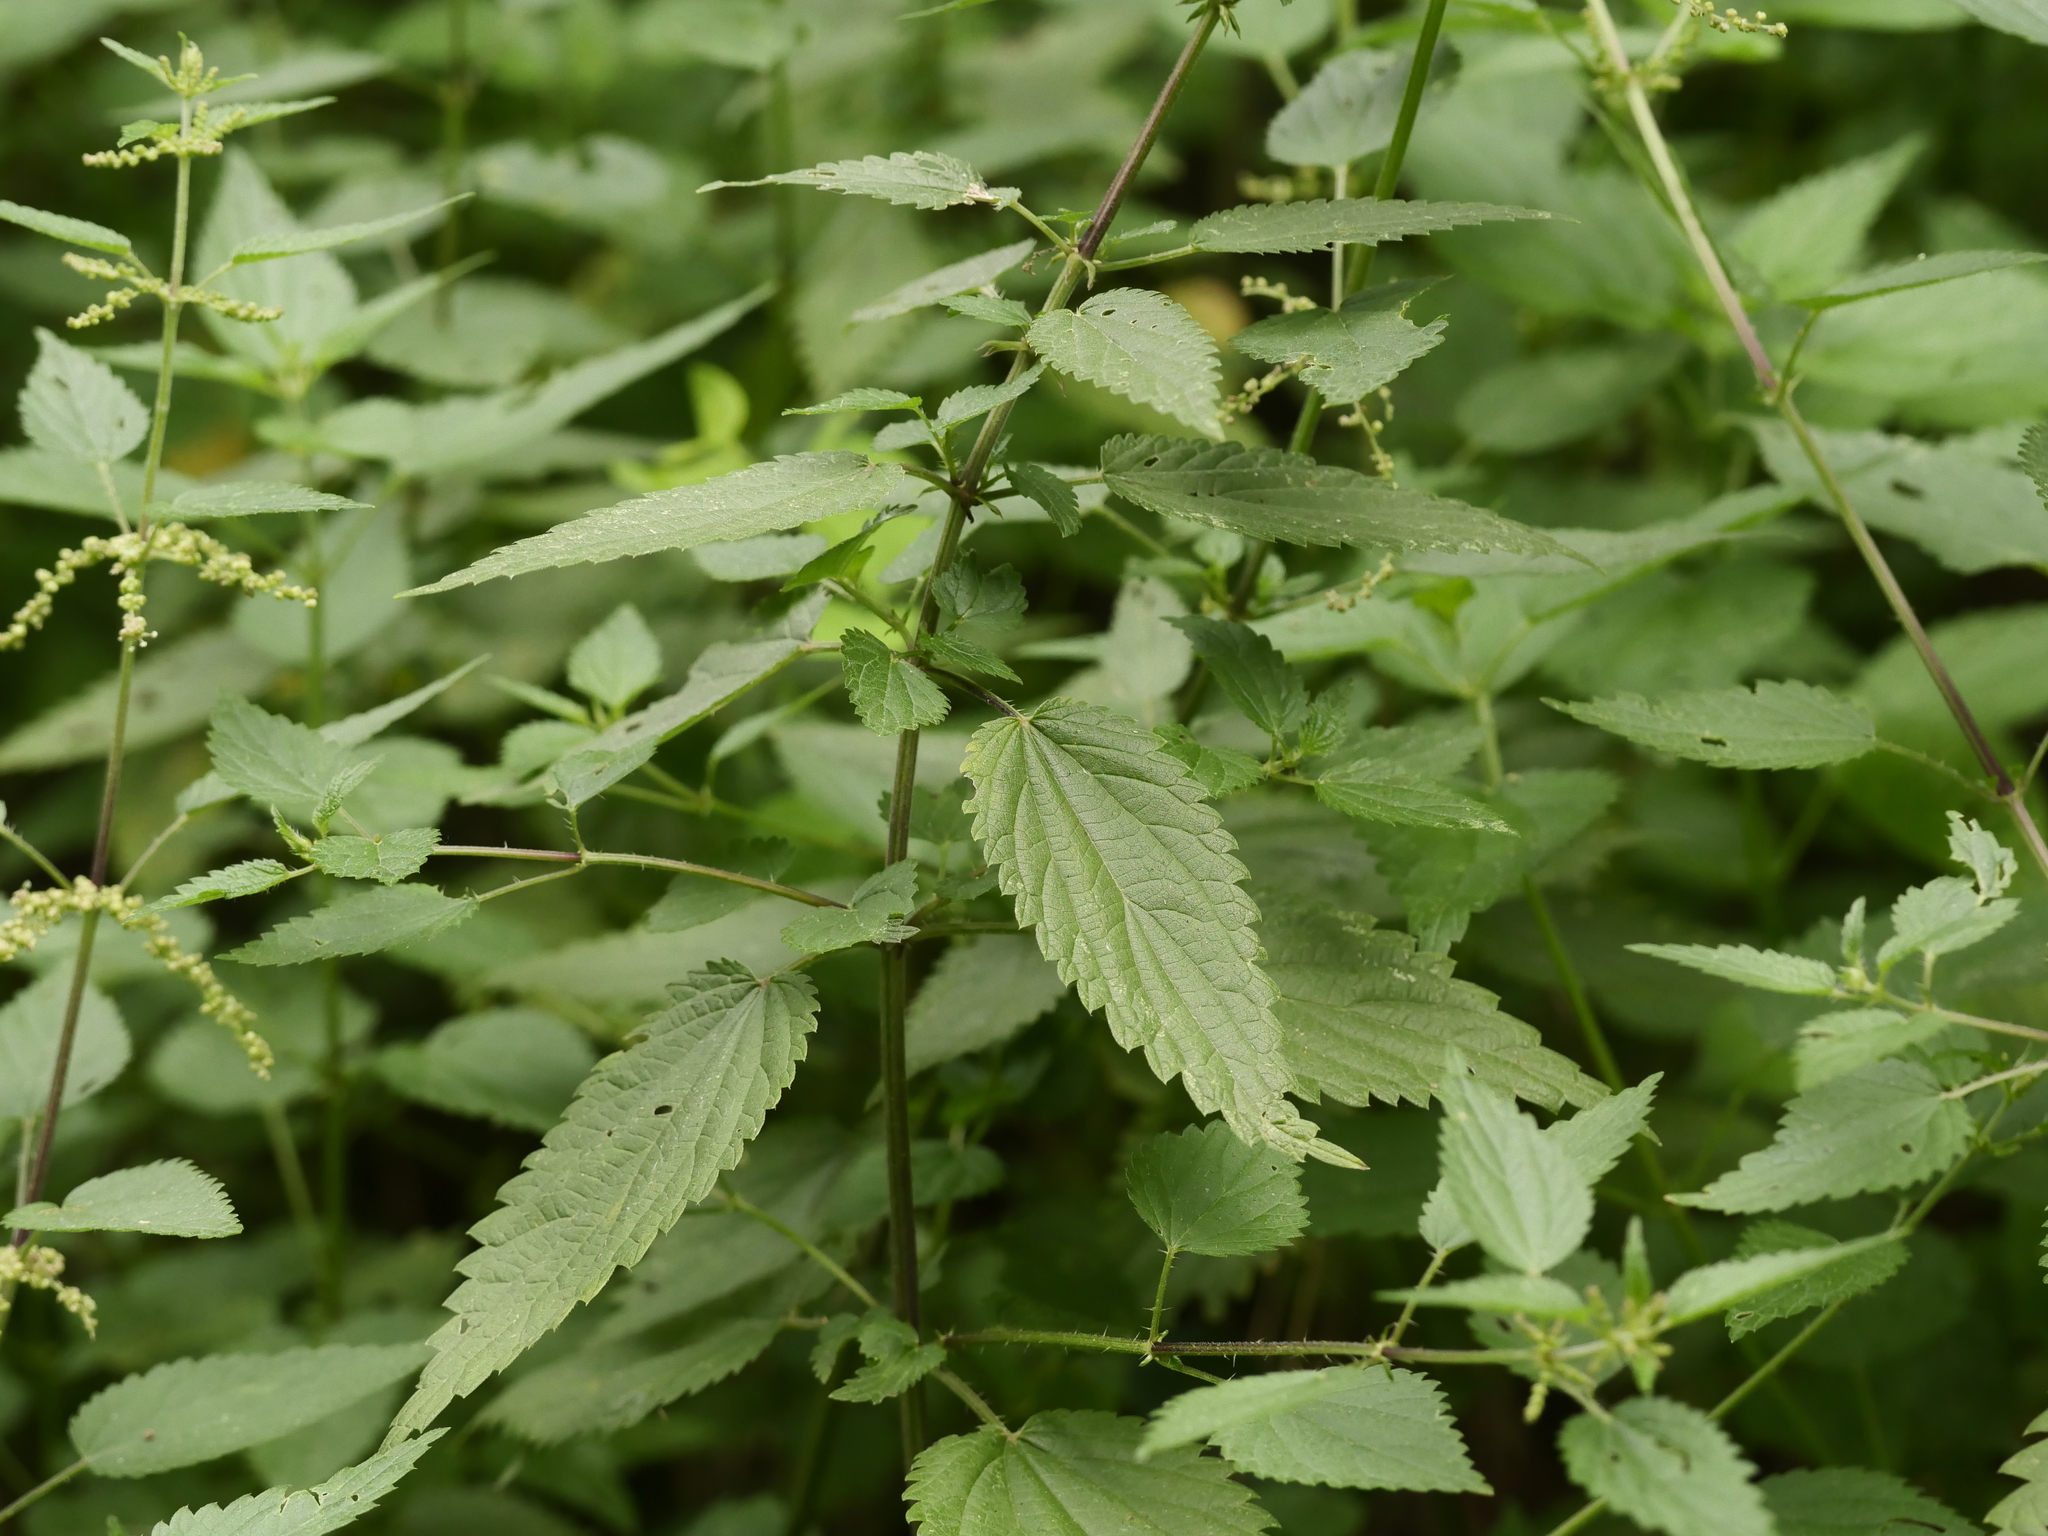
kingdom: Plantae
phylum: Tracheophyta
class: Magnoliopsida
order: Rosales
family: Urticaceae
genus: Urtica
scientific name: Urtica dioica
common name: Common nettle
